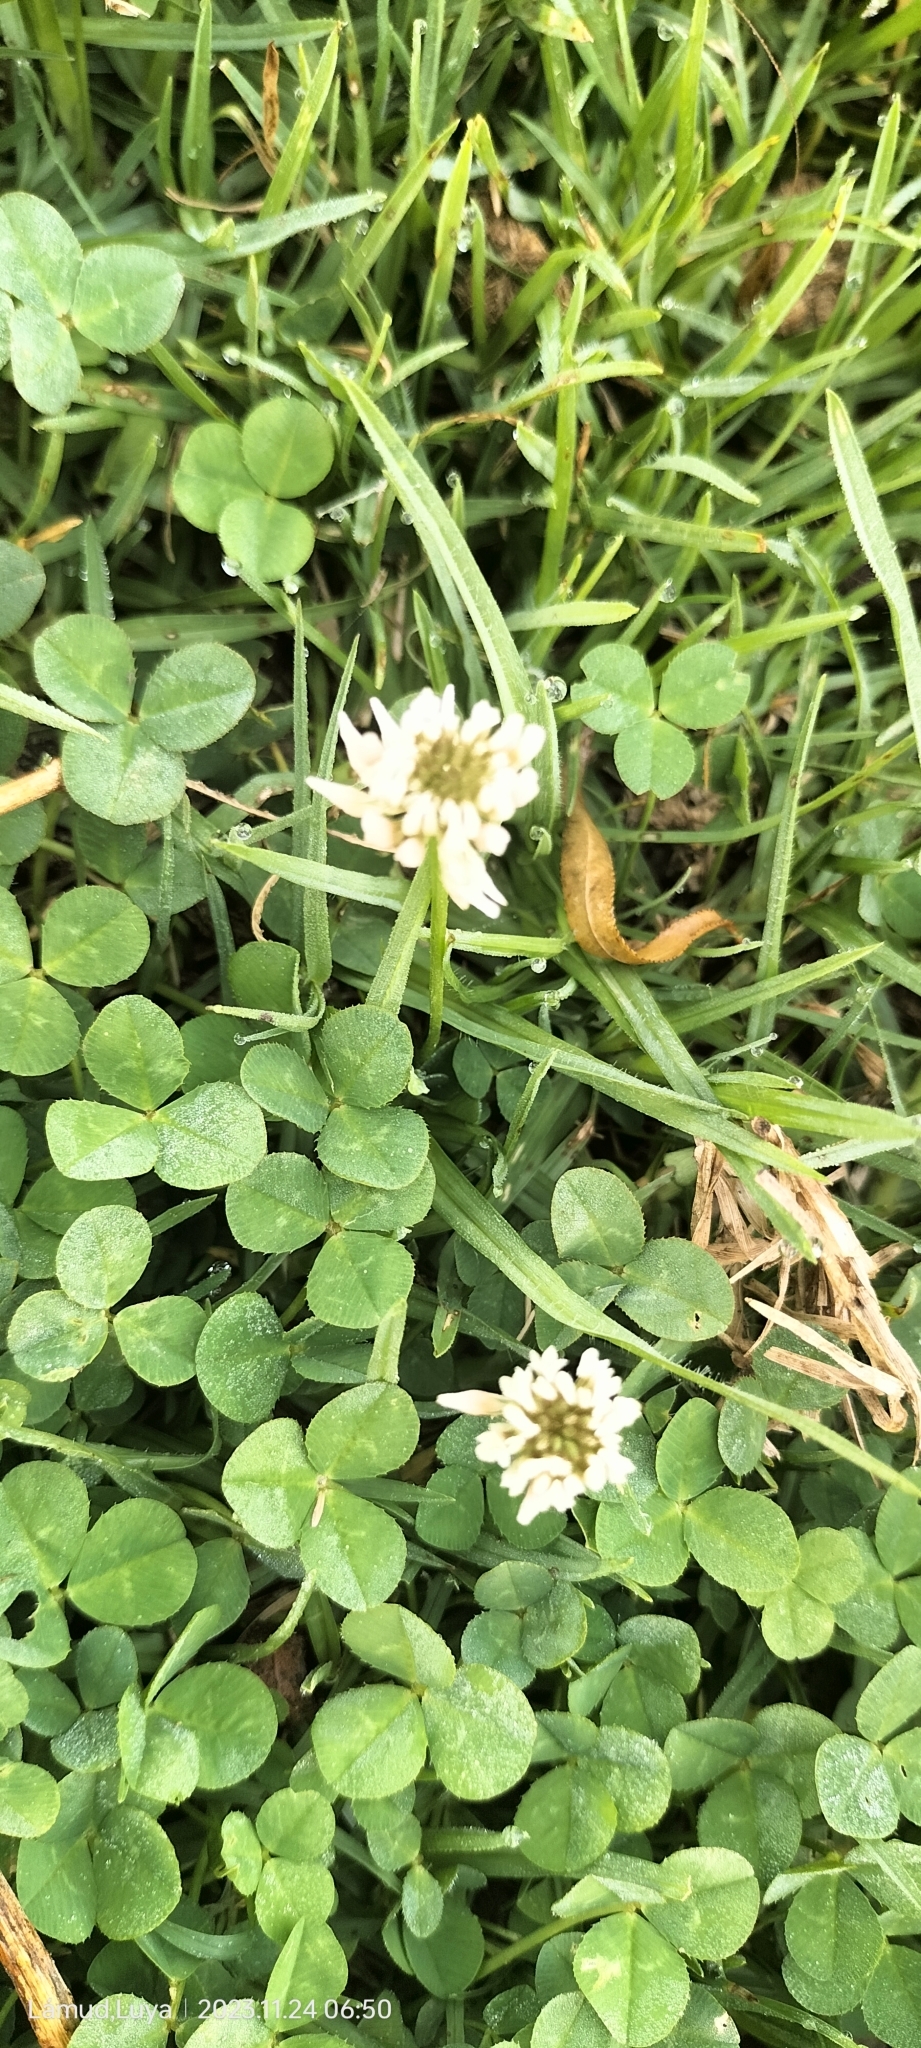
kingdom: Plantae
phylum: Tracheophyta
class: Magnoliopsida
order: Fabales
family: Fabaceae
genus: Trifolium
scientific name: Trifolium repens
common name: White clover
